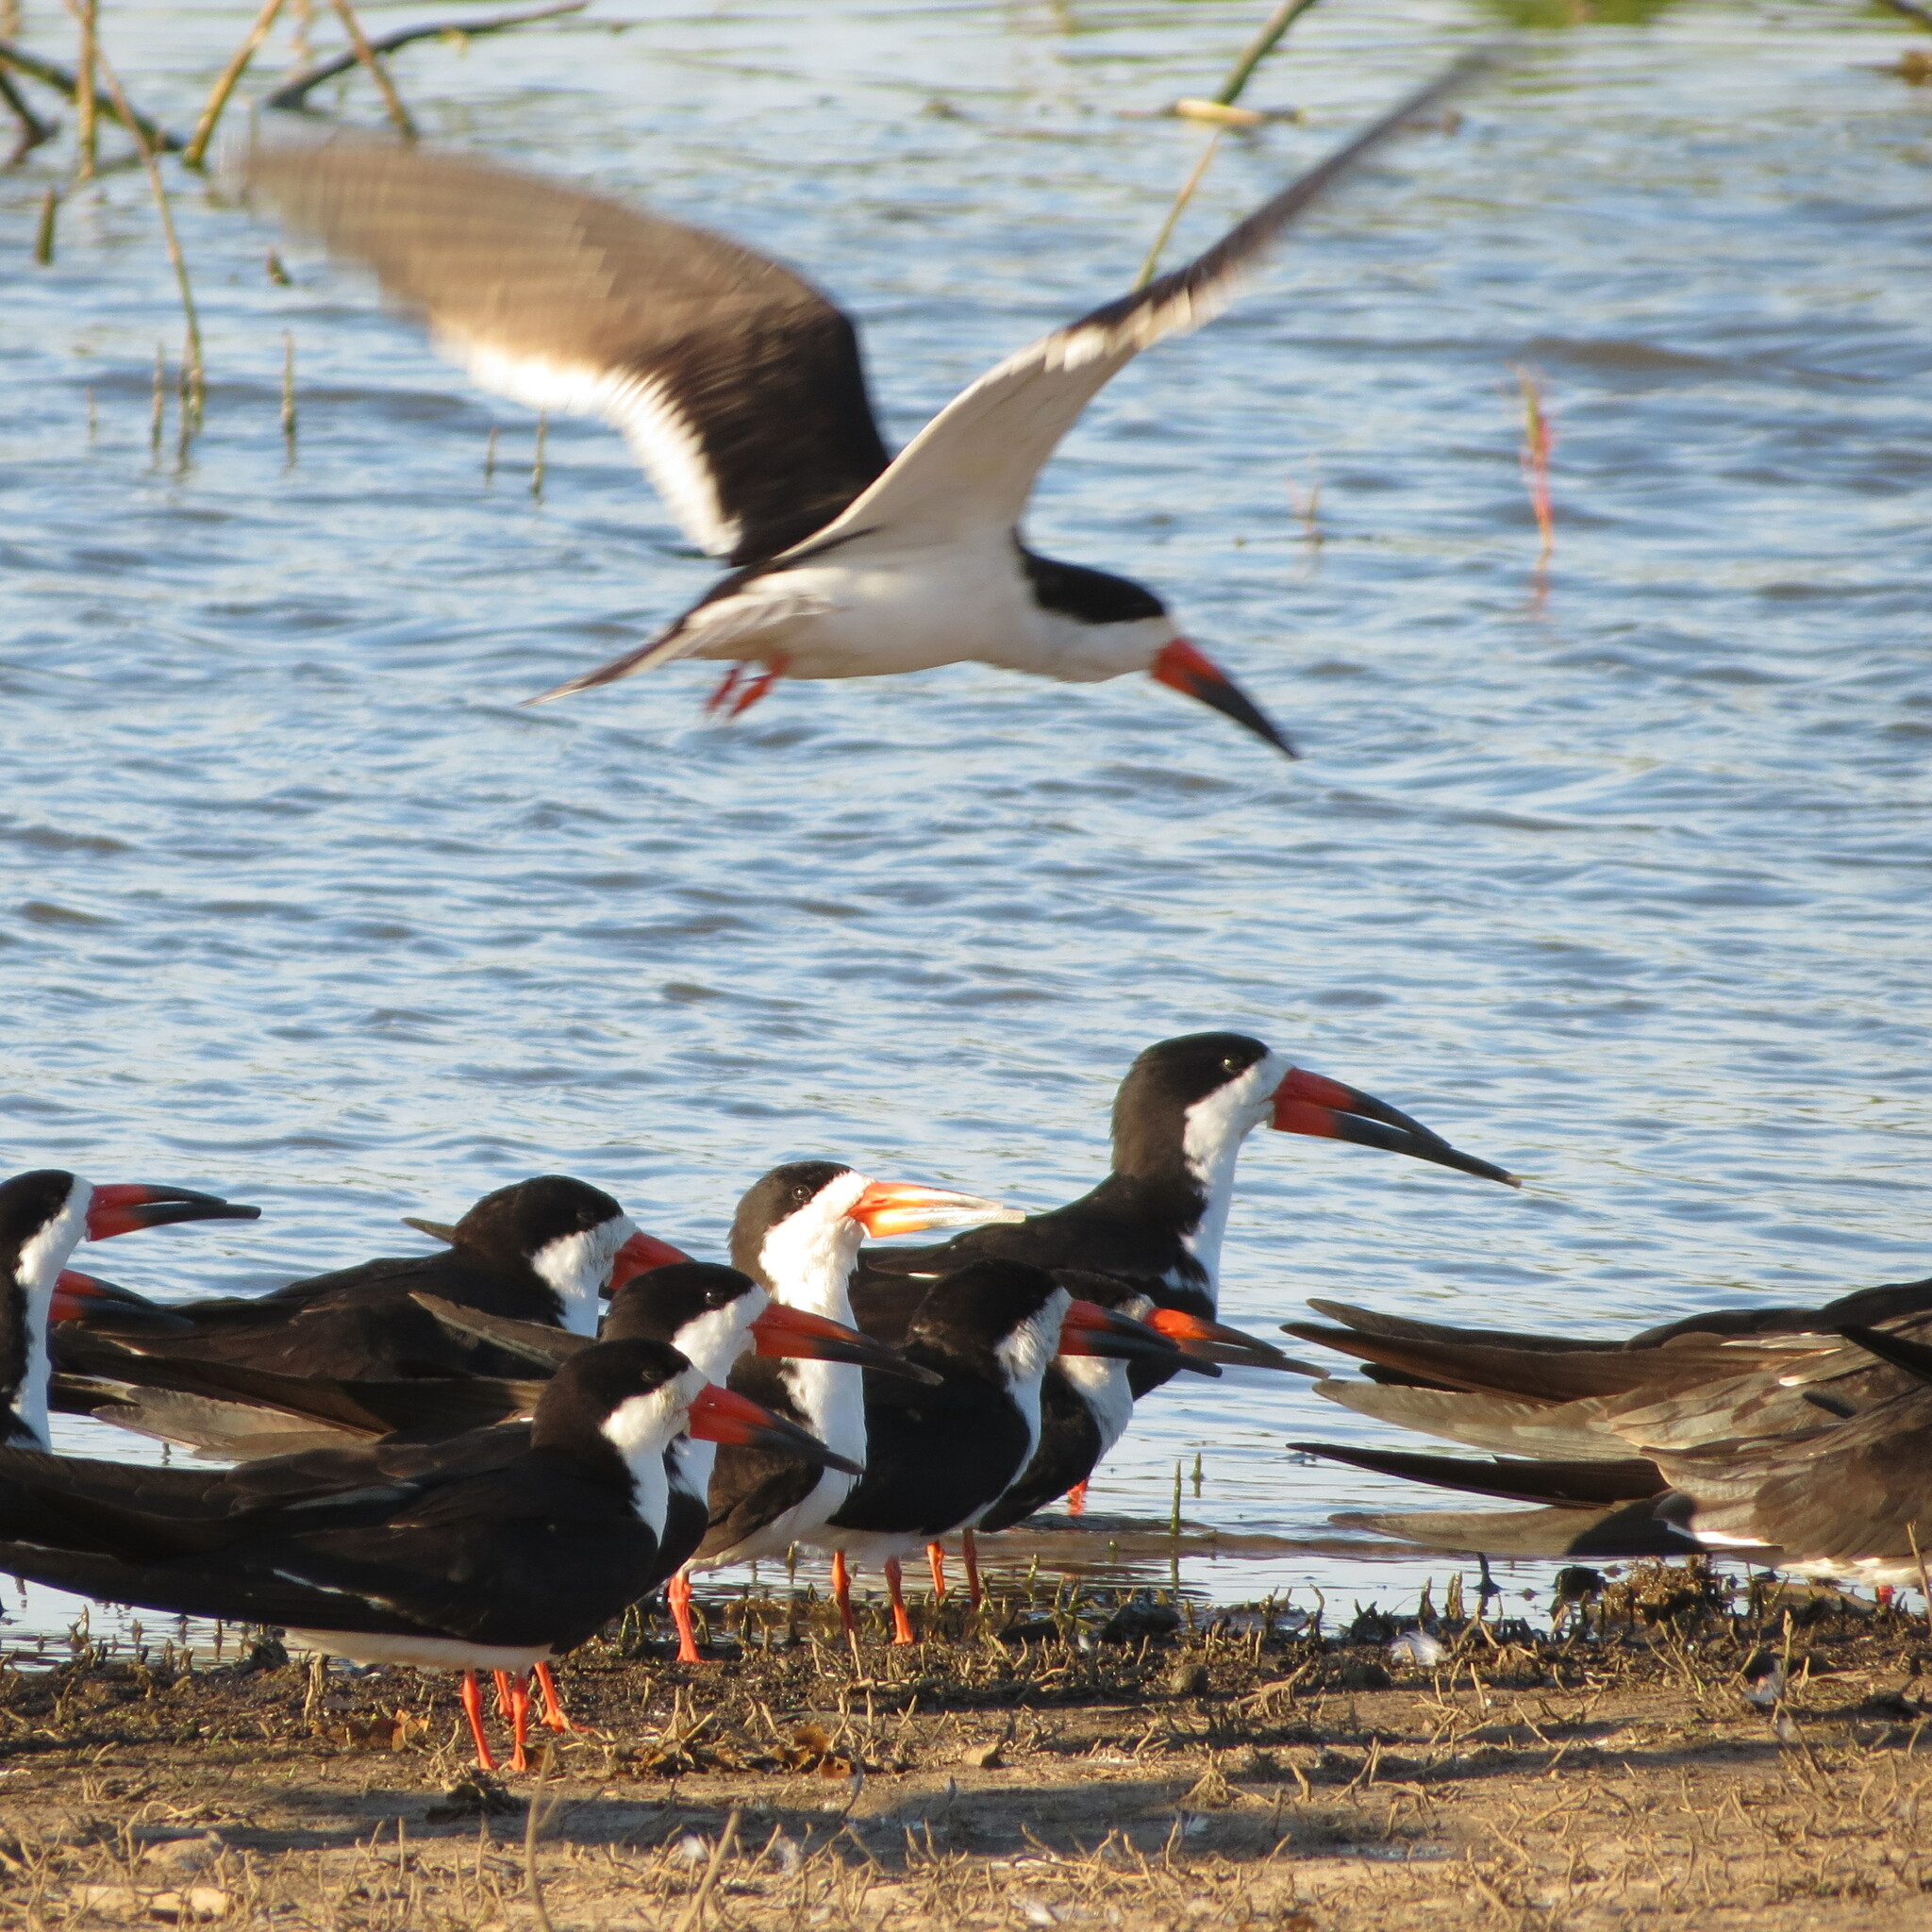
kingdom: Animalia
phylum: Chordata
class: Aves
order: Charadriiformes
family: Laridae
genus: Rynchops
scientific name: Rynchops niger
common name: Black skimmer
